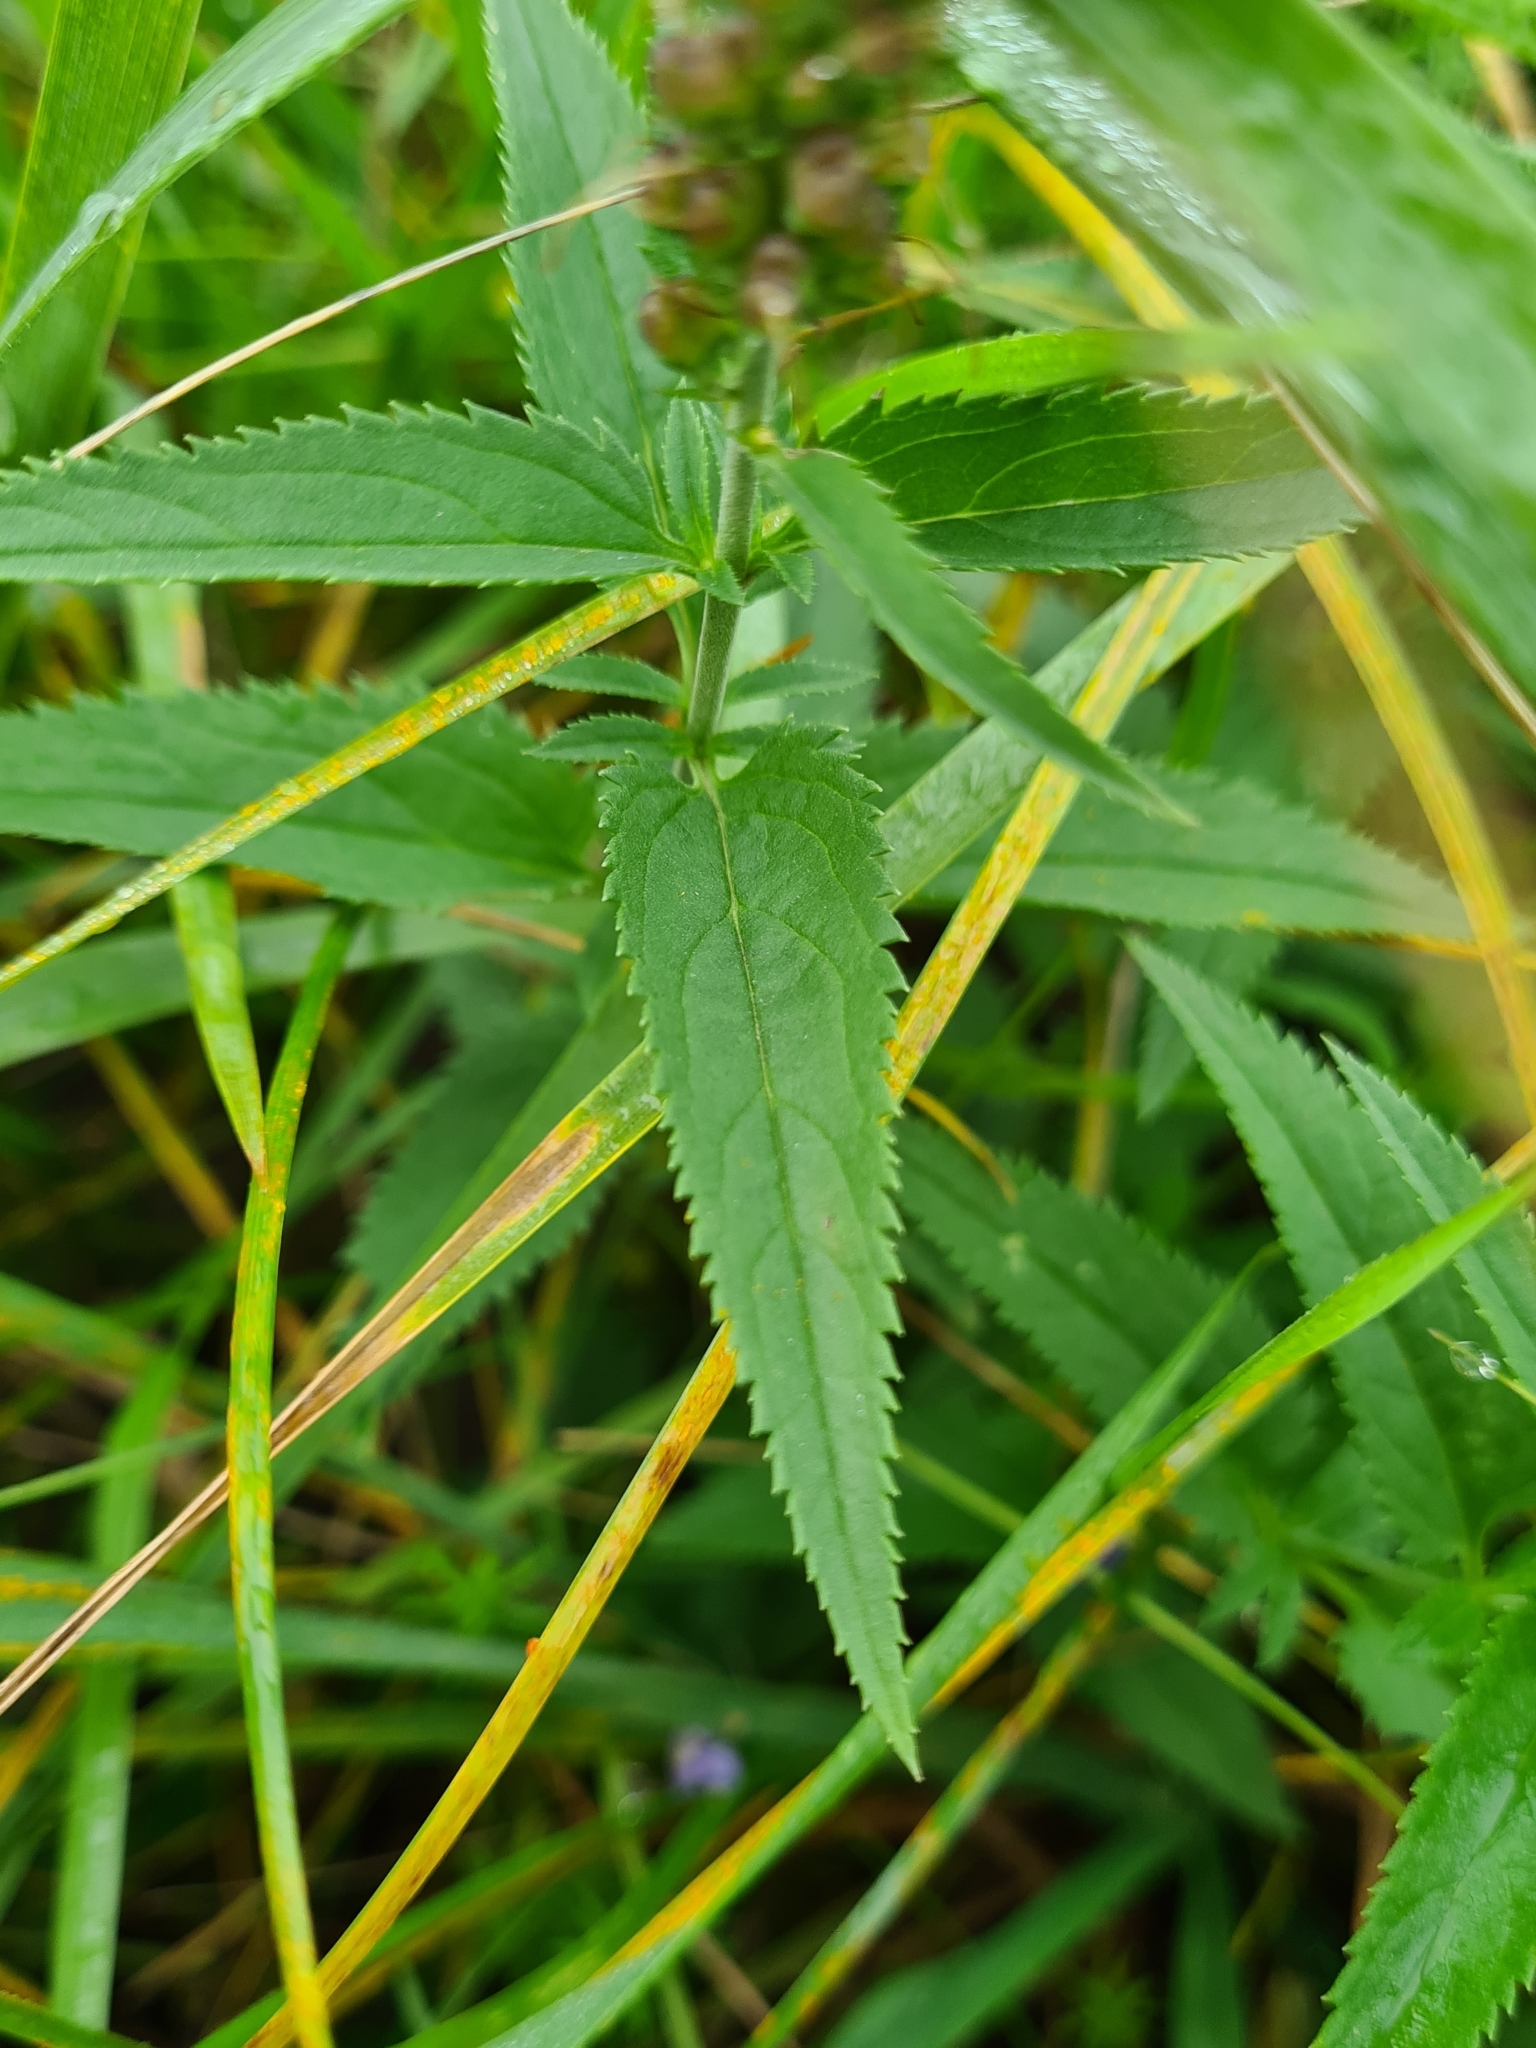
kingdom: Plantae
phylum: Tracheophyta
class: Magnoliopsida
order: Lamiales
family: Plantaginaceae
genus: Veronica
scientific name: Veronica longifolia
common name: Garden speedwell
